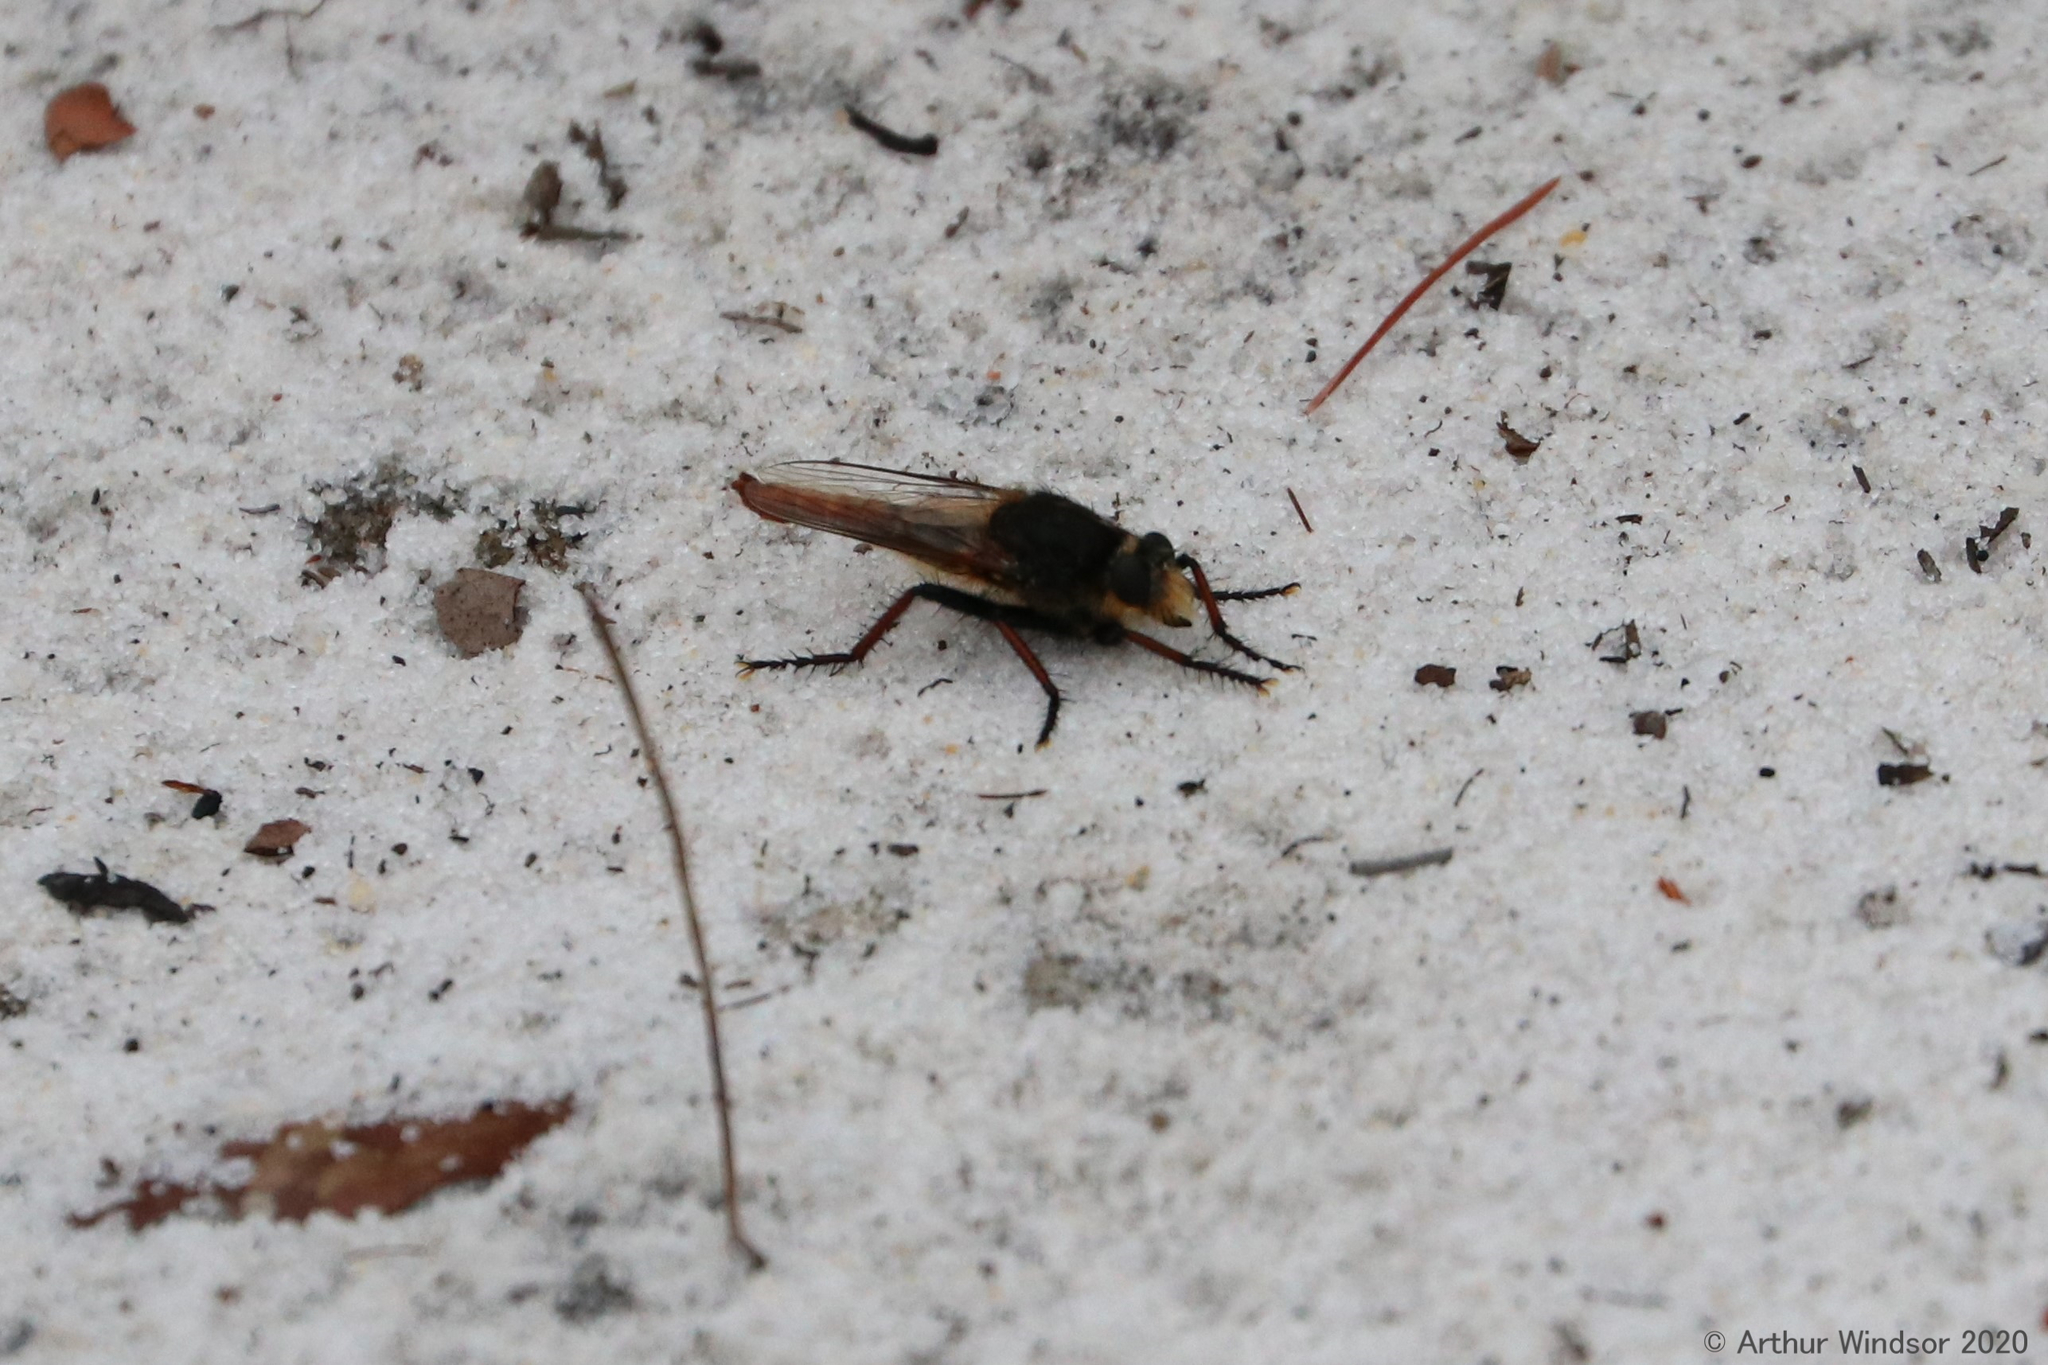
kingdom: Animalia
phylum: Arthropoda
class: Insecta
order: Diptera
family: Asilidae
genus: Proctacanthus
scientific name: Proctacanthus fulviventris
